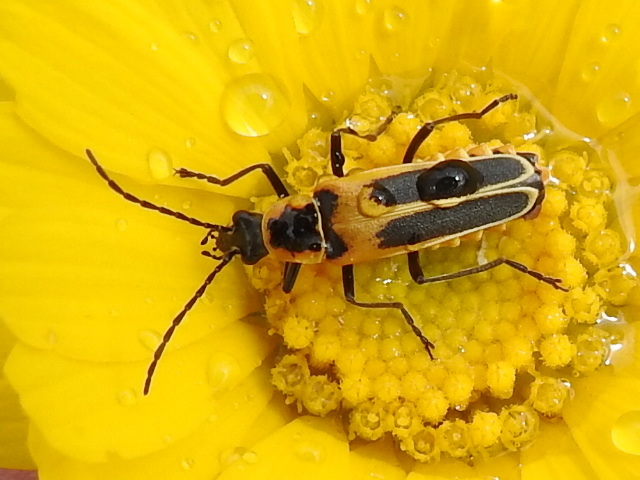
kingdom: Animalia
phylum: Arthropoda
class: Insecta
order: Coleoptera
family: Cantharidae
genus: Chauliognathus
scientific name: Chauliognathus lewisi
